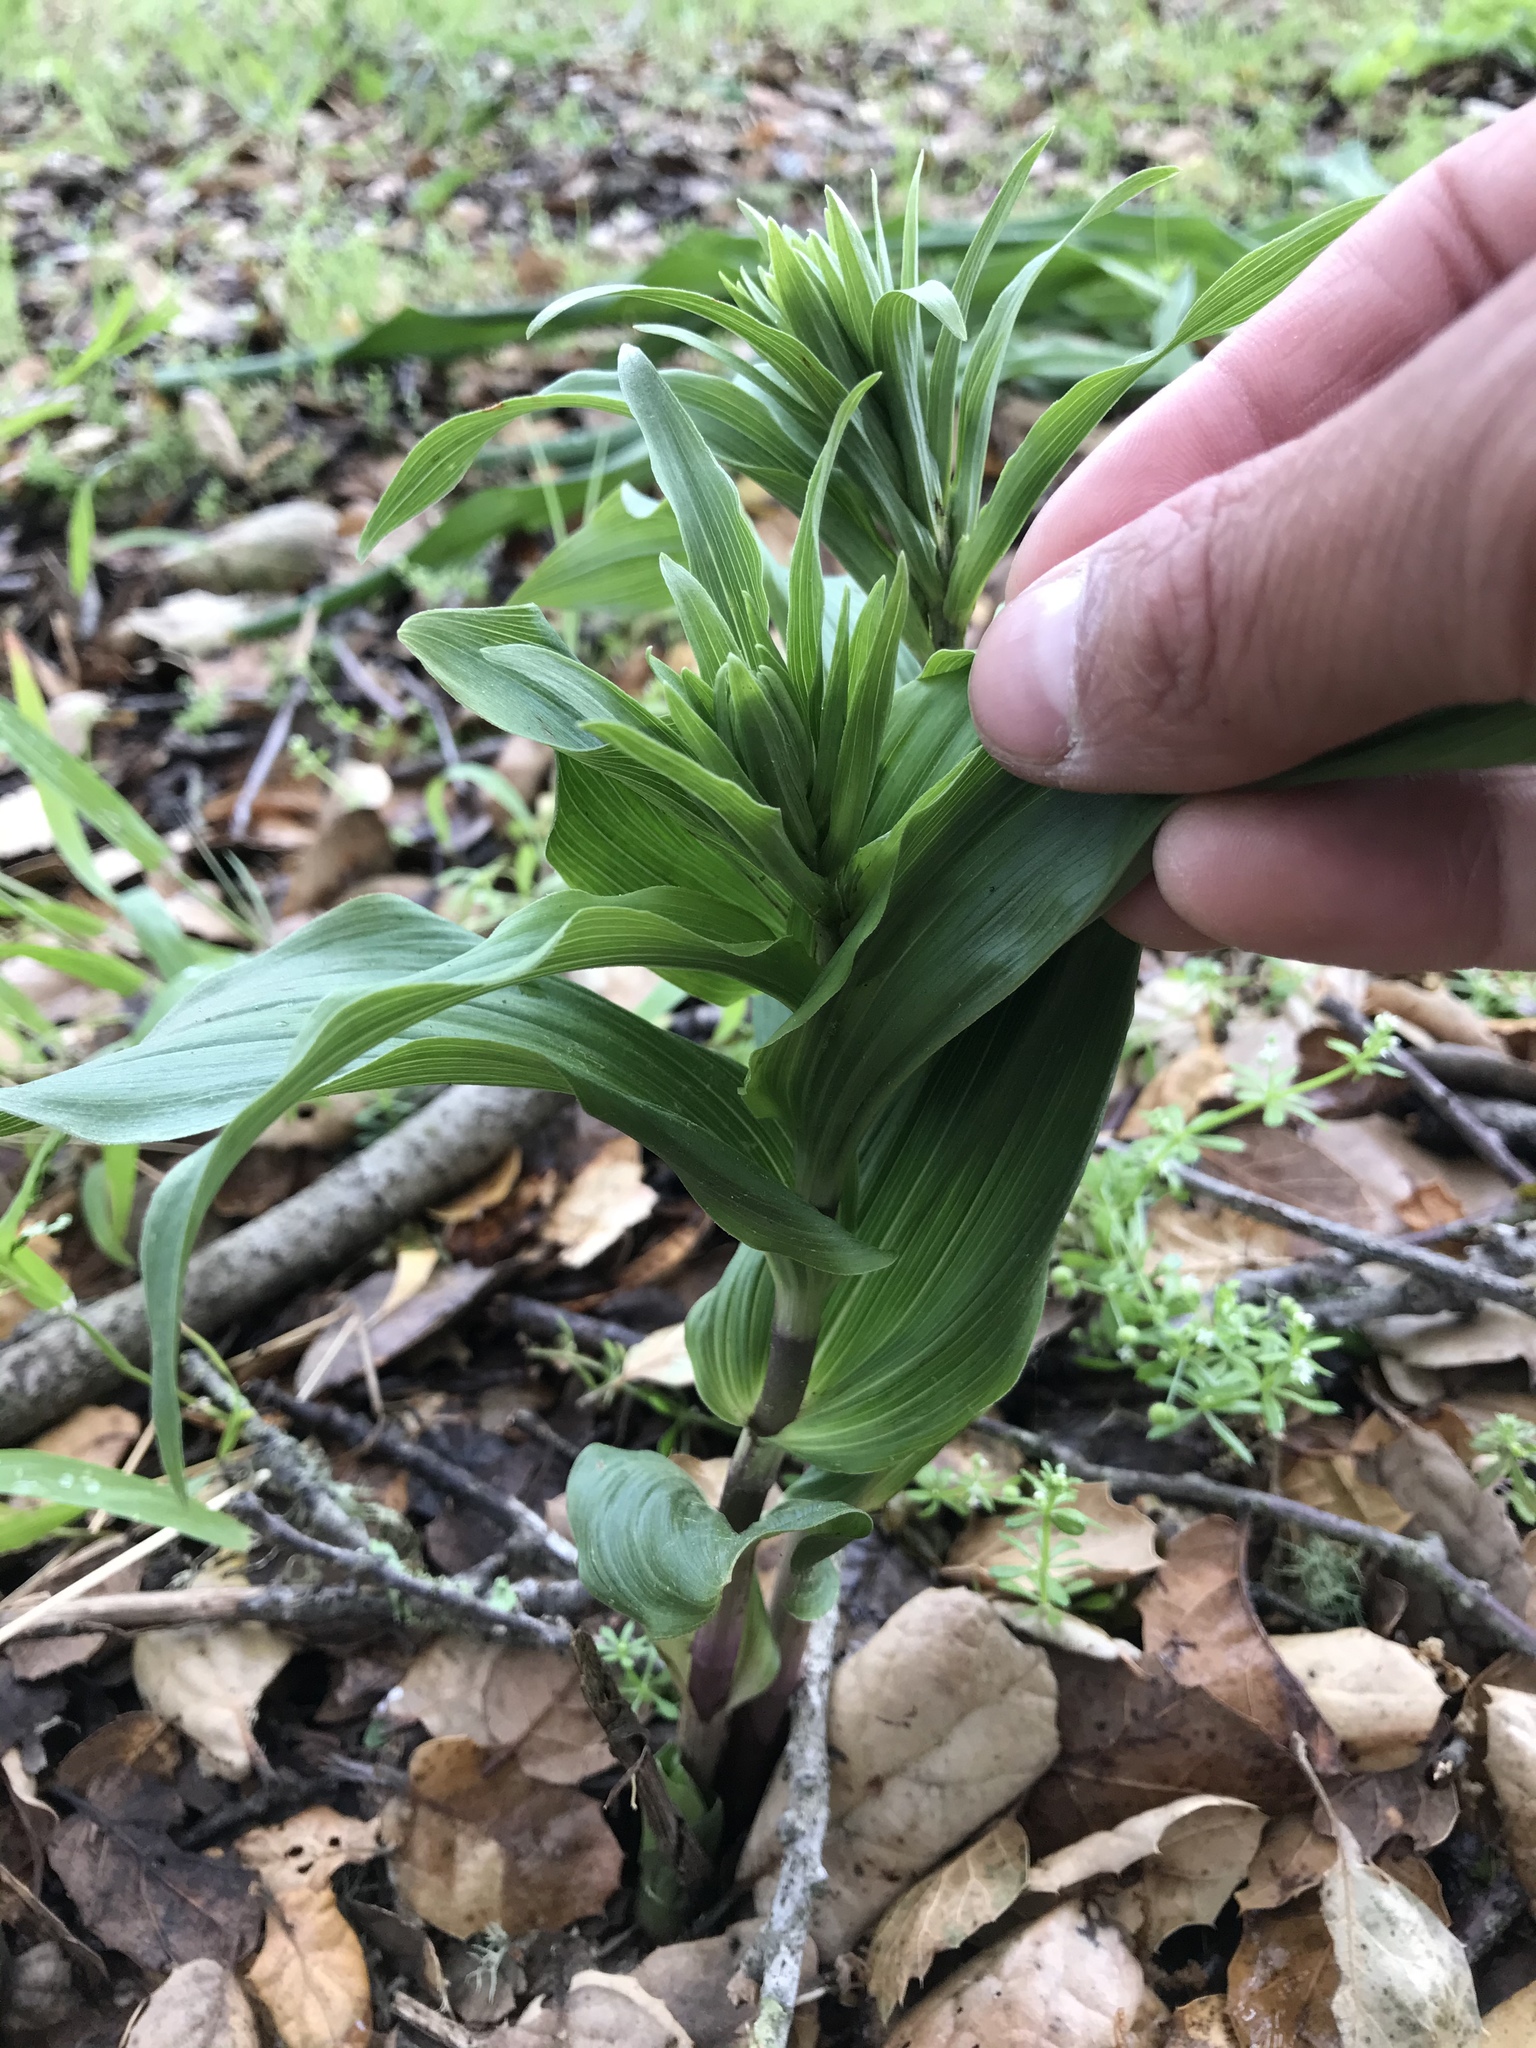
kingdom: Plantae
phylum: Tracheophyta
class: Liliopsida
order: Asparagales
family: Orchidaceae
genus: Epipactis
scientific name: Epipactis helleborine
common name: Broad-leaved helleborine
